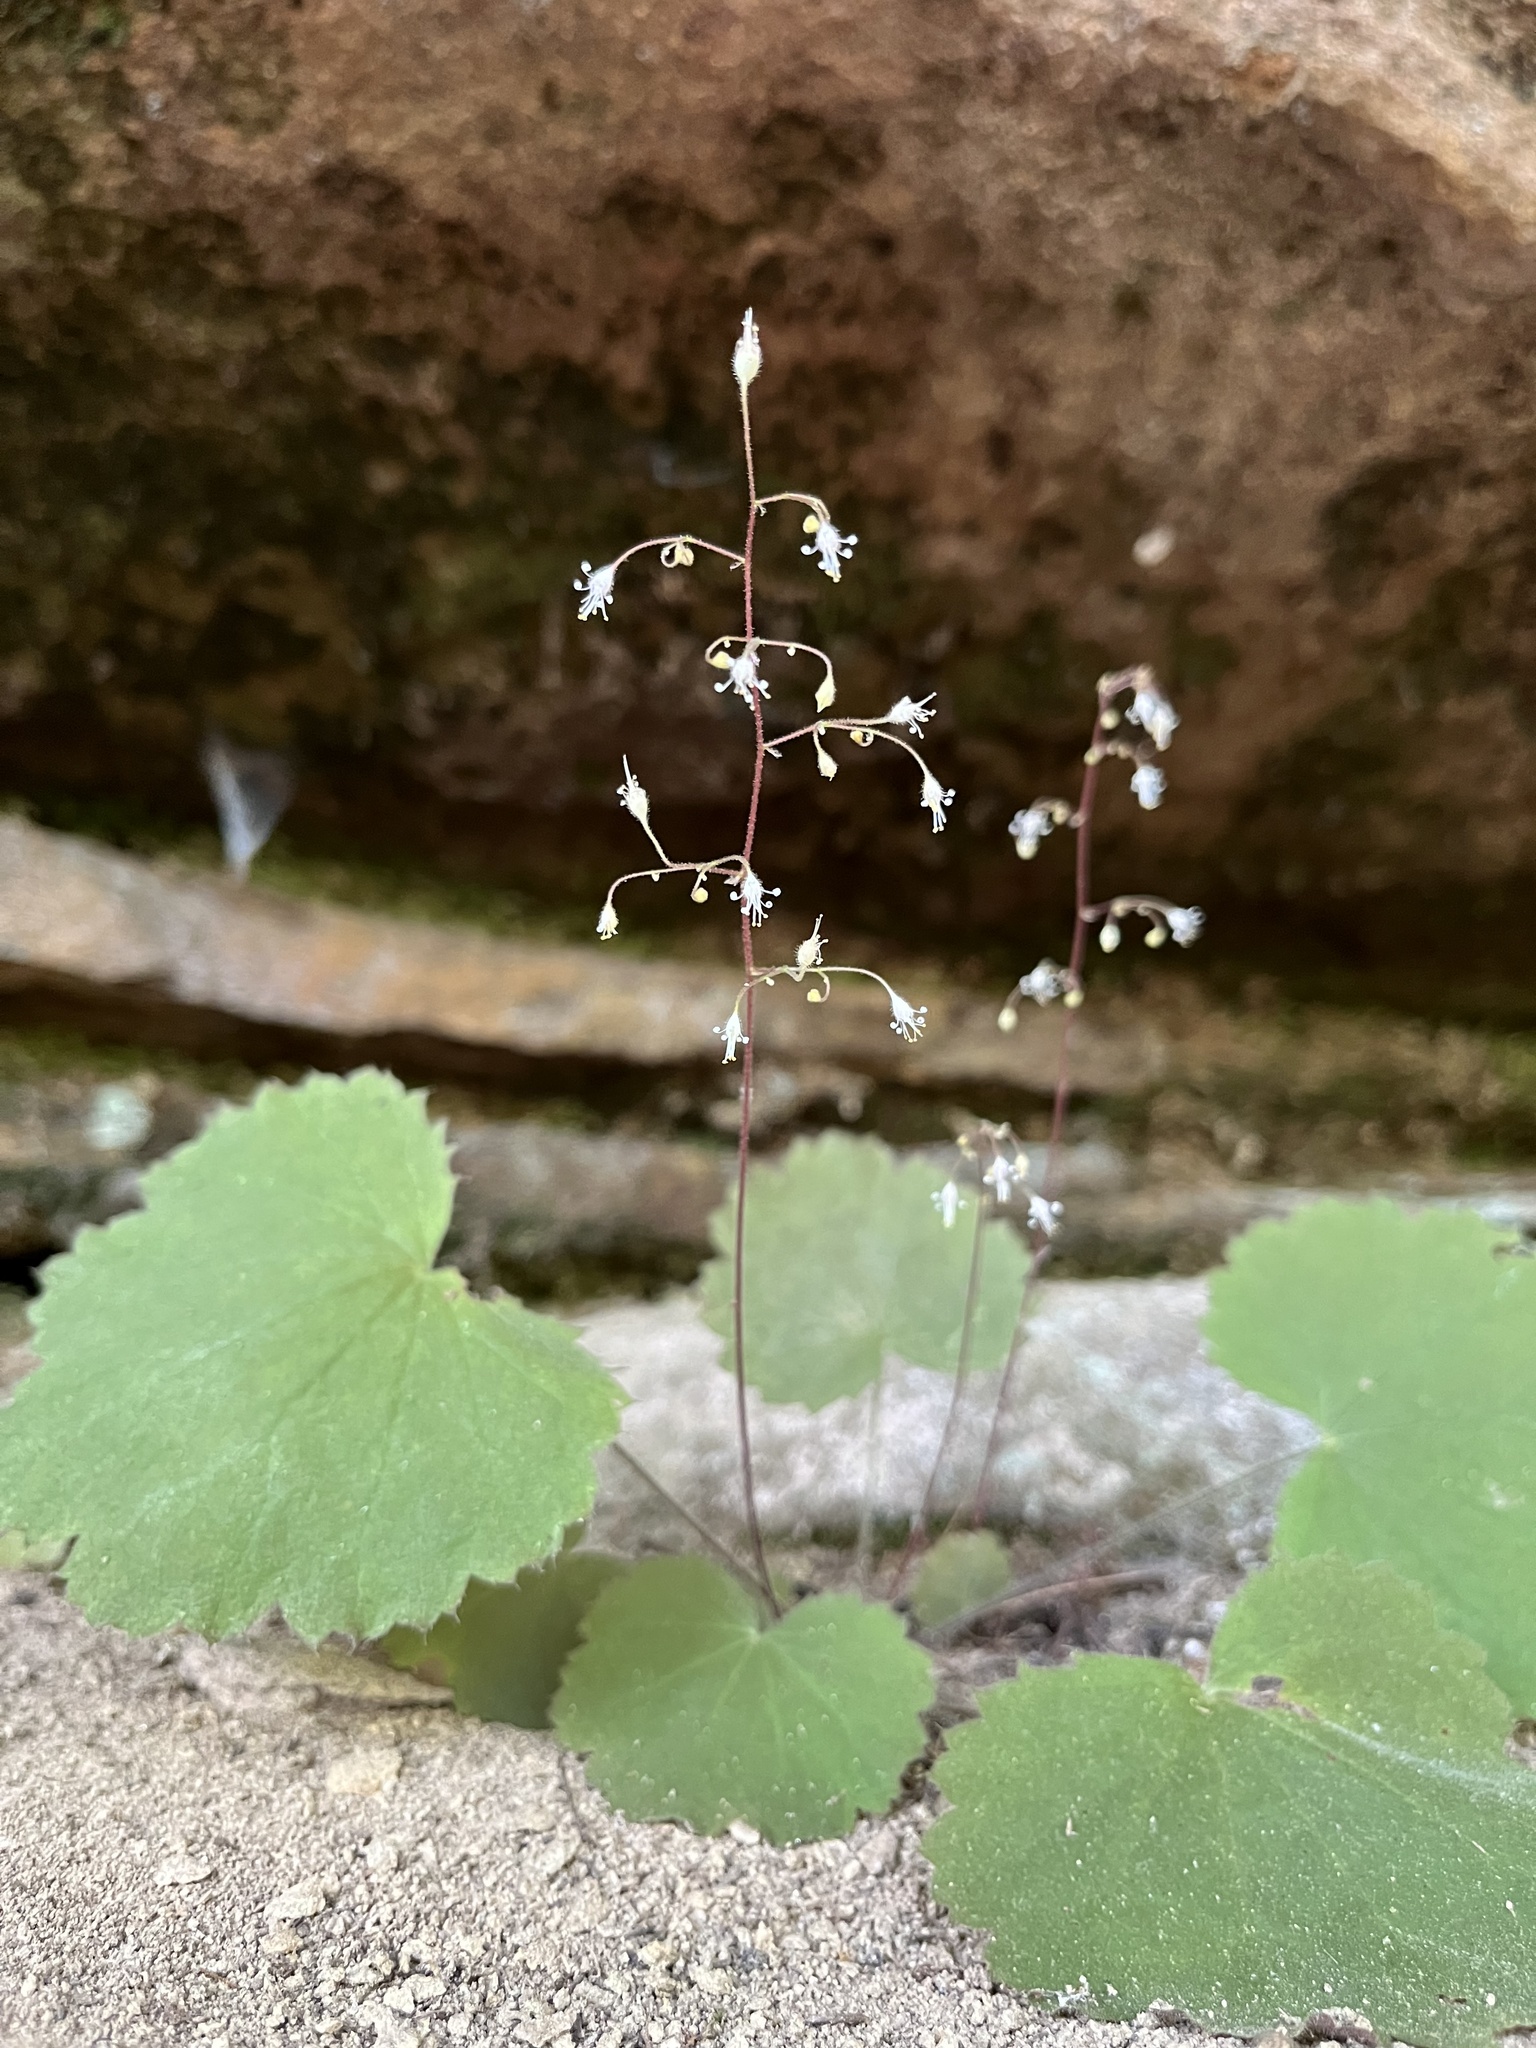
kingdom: Plantae
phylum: Tracheophyta
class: Magnoliopsida
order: Saxifragales
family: Saxifragaceae
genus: Heuchera
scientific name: Heuchera parviflora
